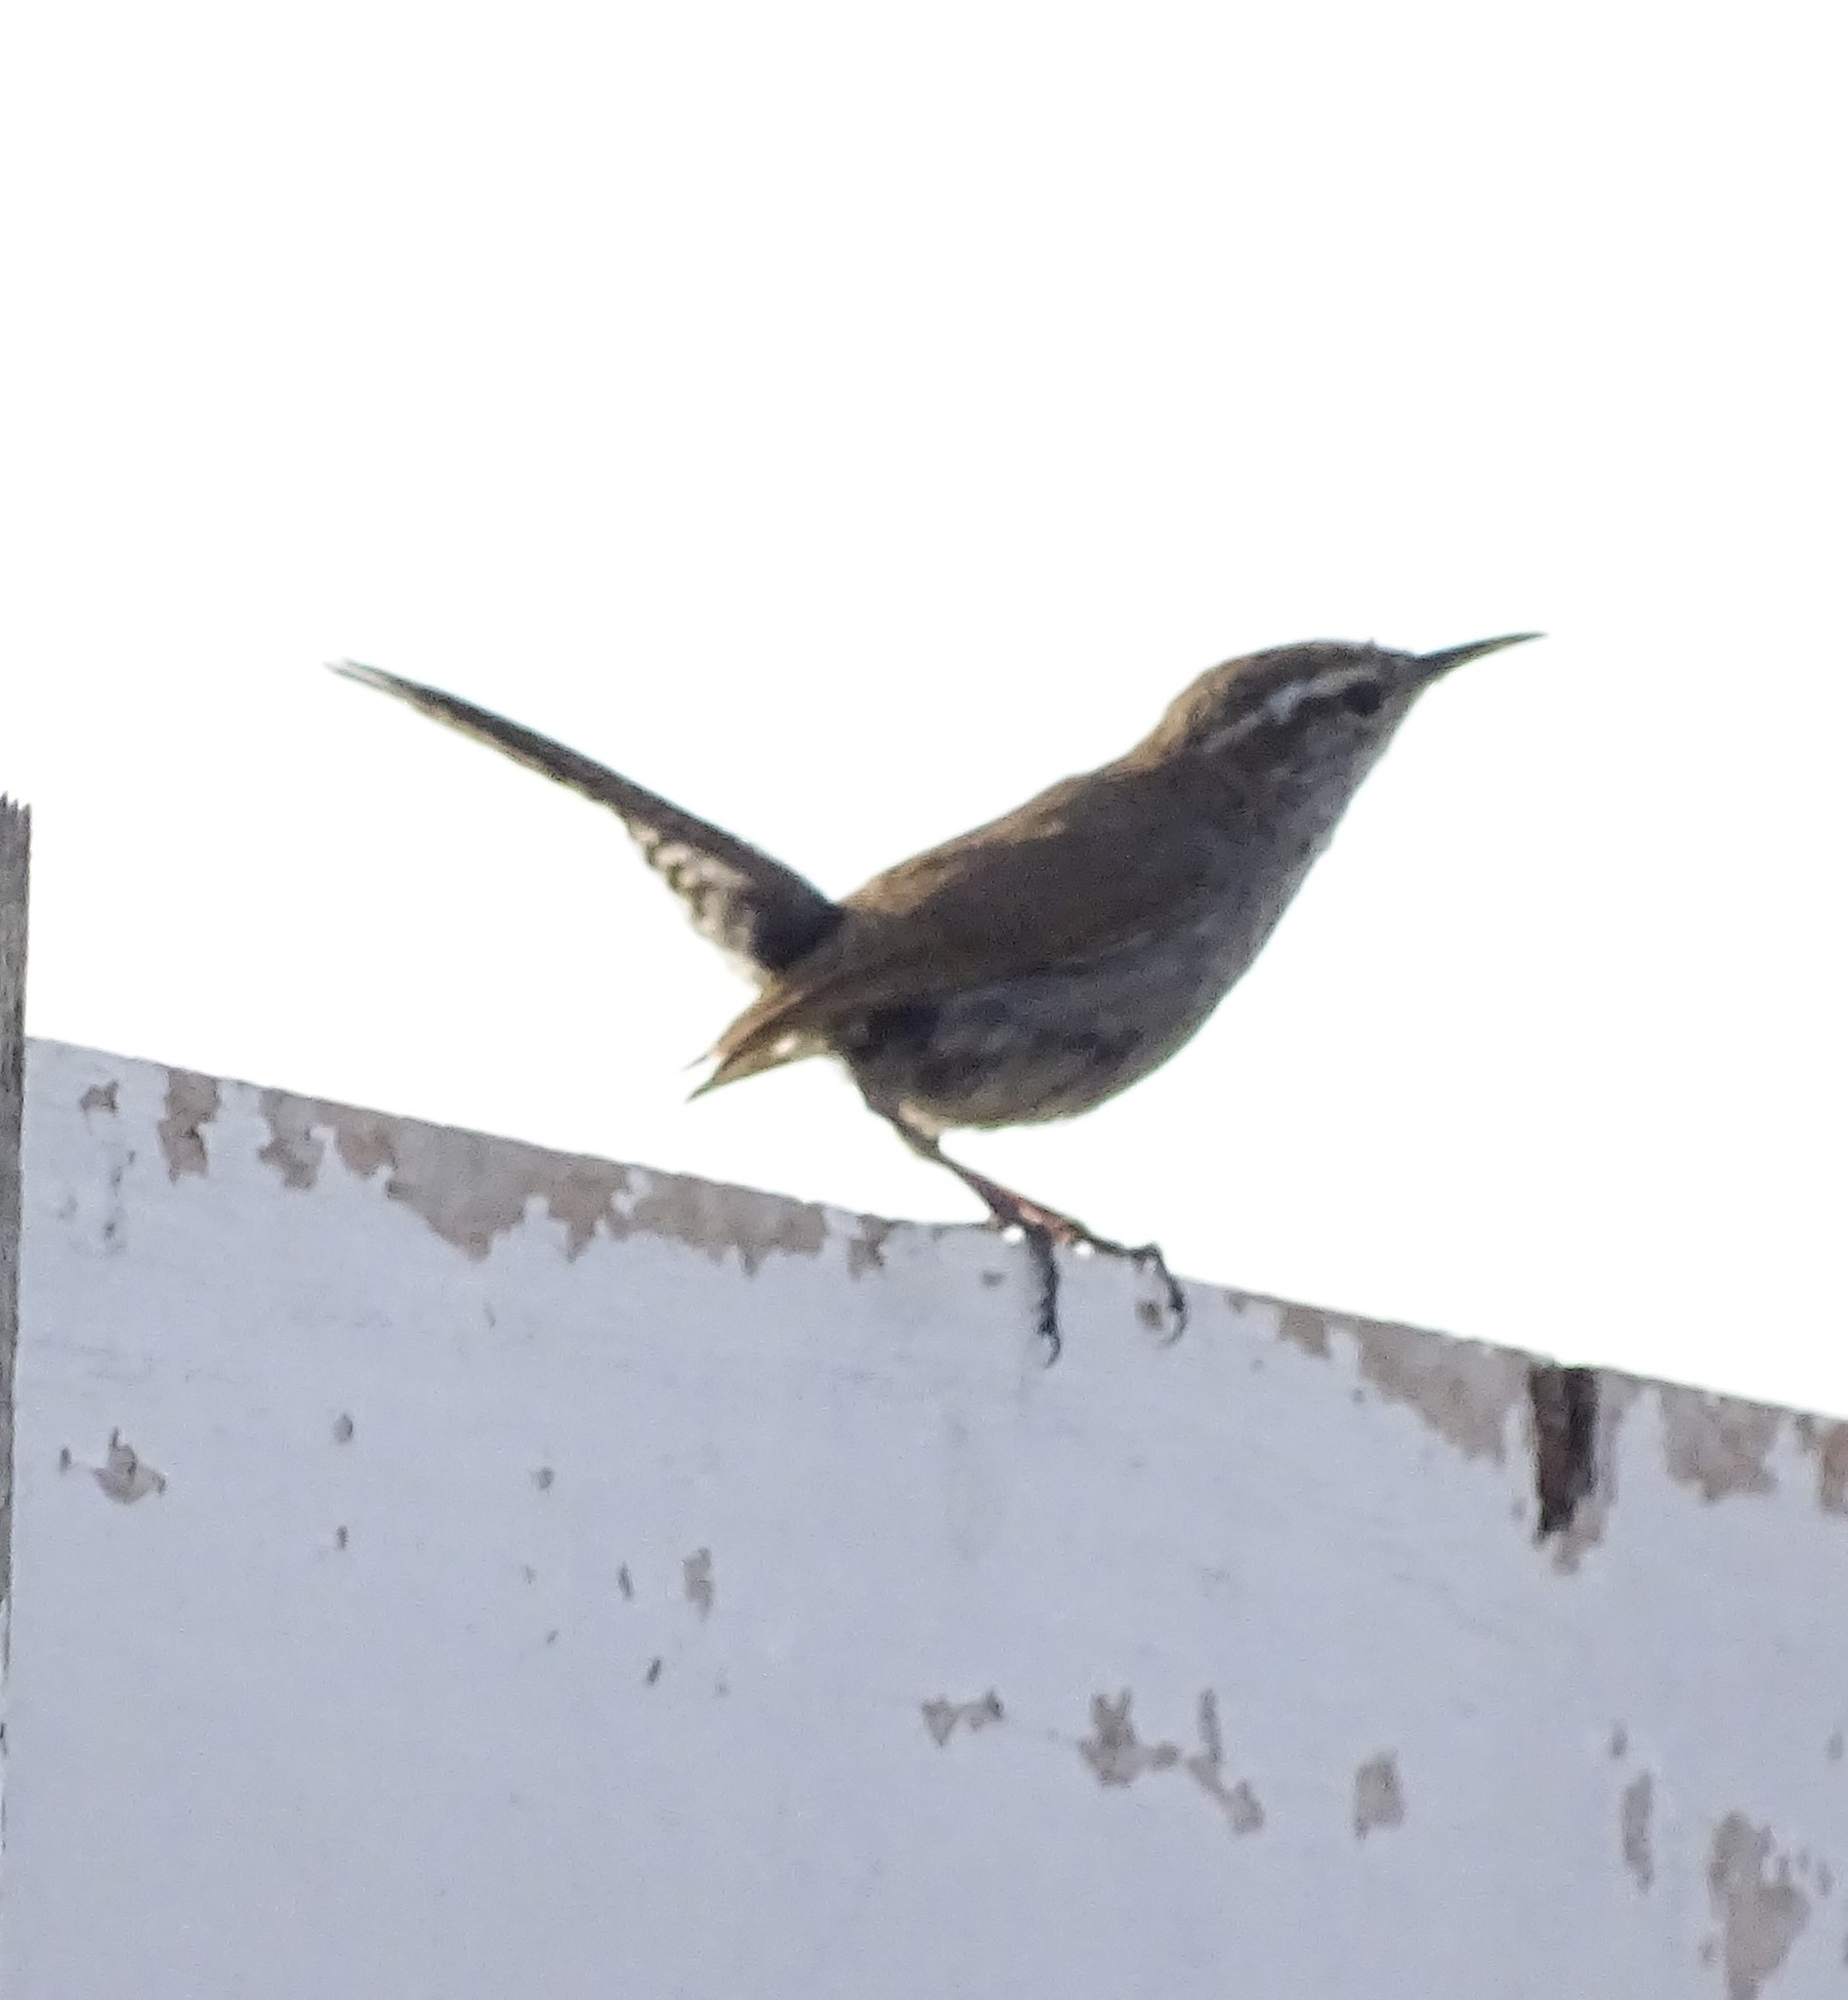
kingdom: Animalia
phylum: Chordata
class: Aves
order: Passeriformes
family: Troglodytidae
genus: Thryomanes
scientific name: Thryomanes bewickii
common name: Bewick's wren
